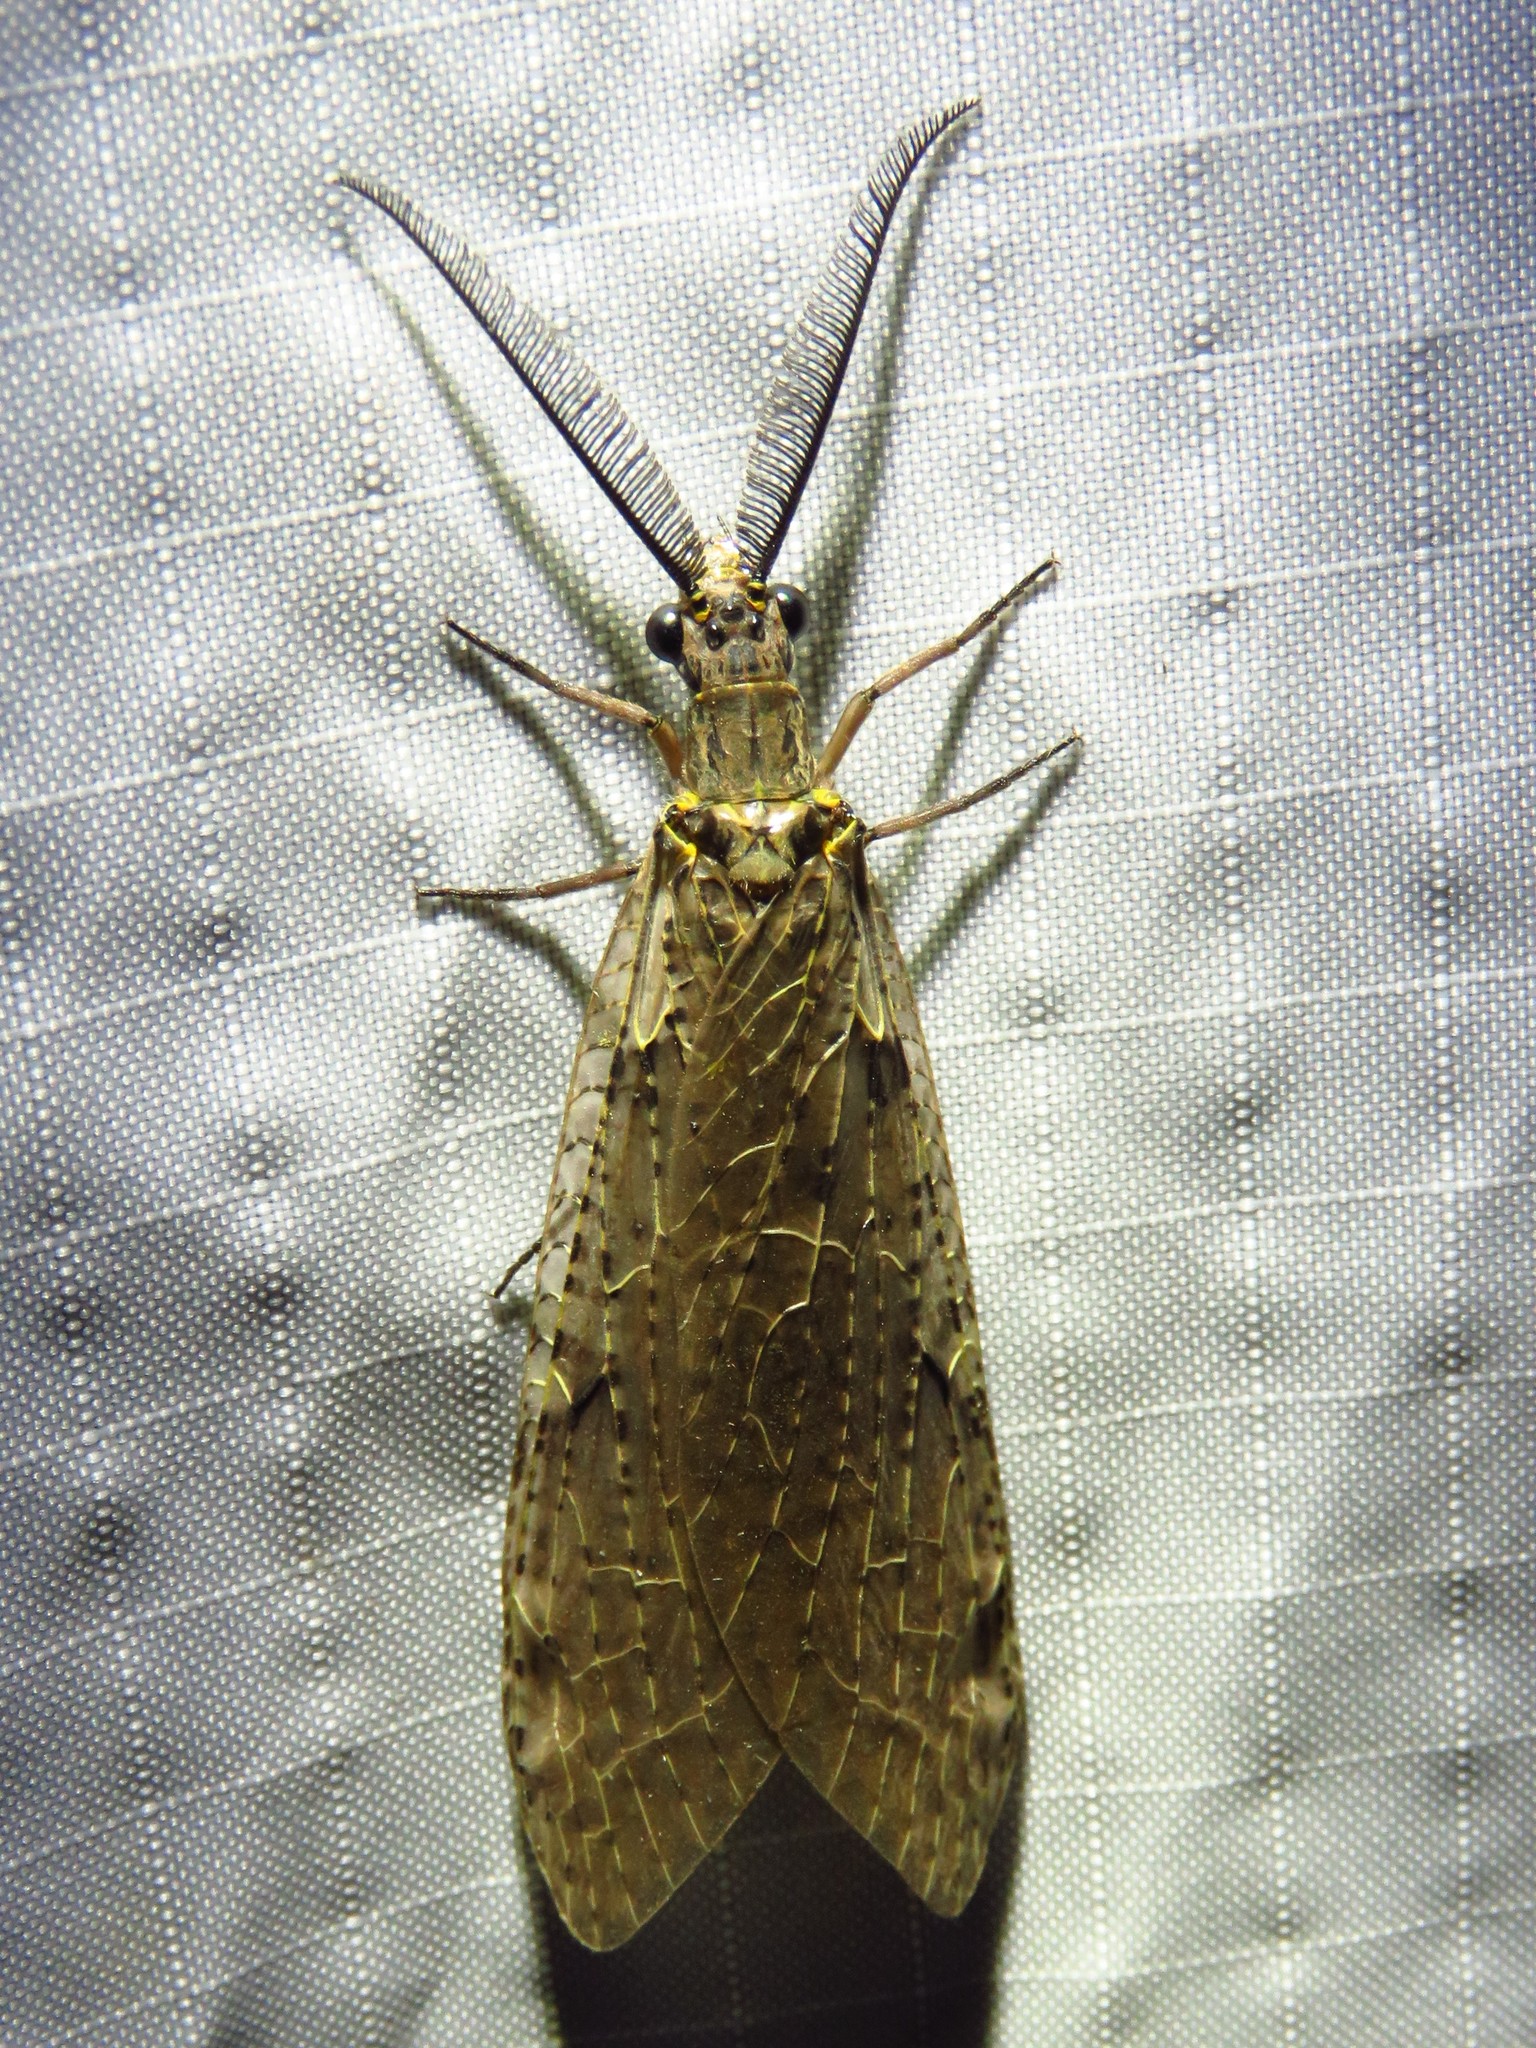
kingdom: Animalia
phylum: Arthropoda
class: Insecta
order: Megaloptera
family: Corydalidae
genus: Chauliodes
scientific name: Chauliodes rastricornis
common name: Spring fishfly
